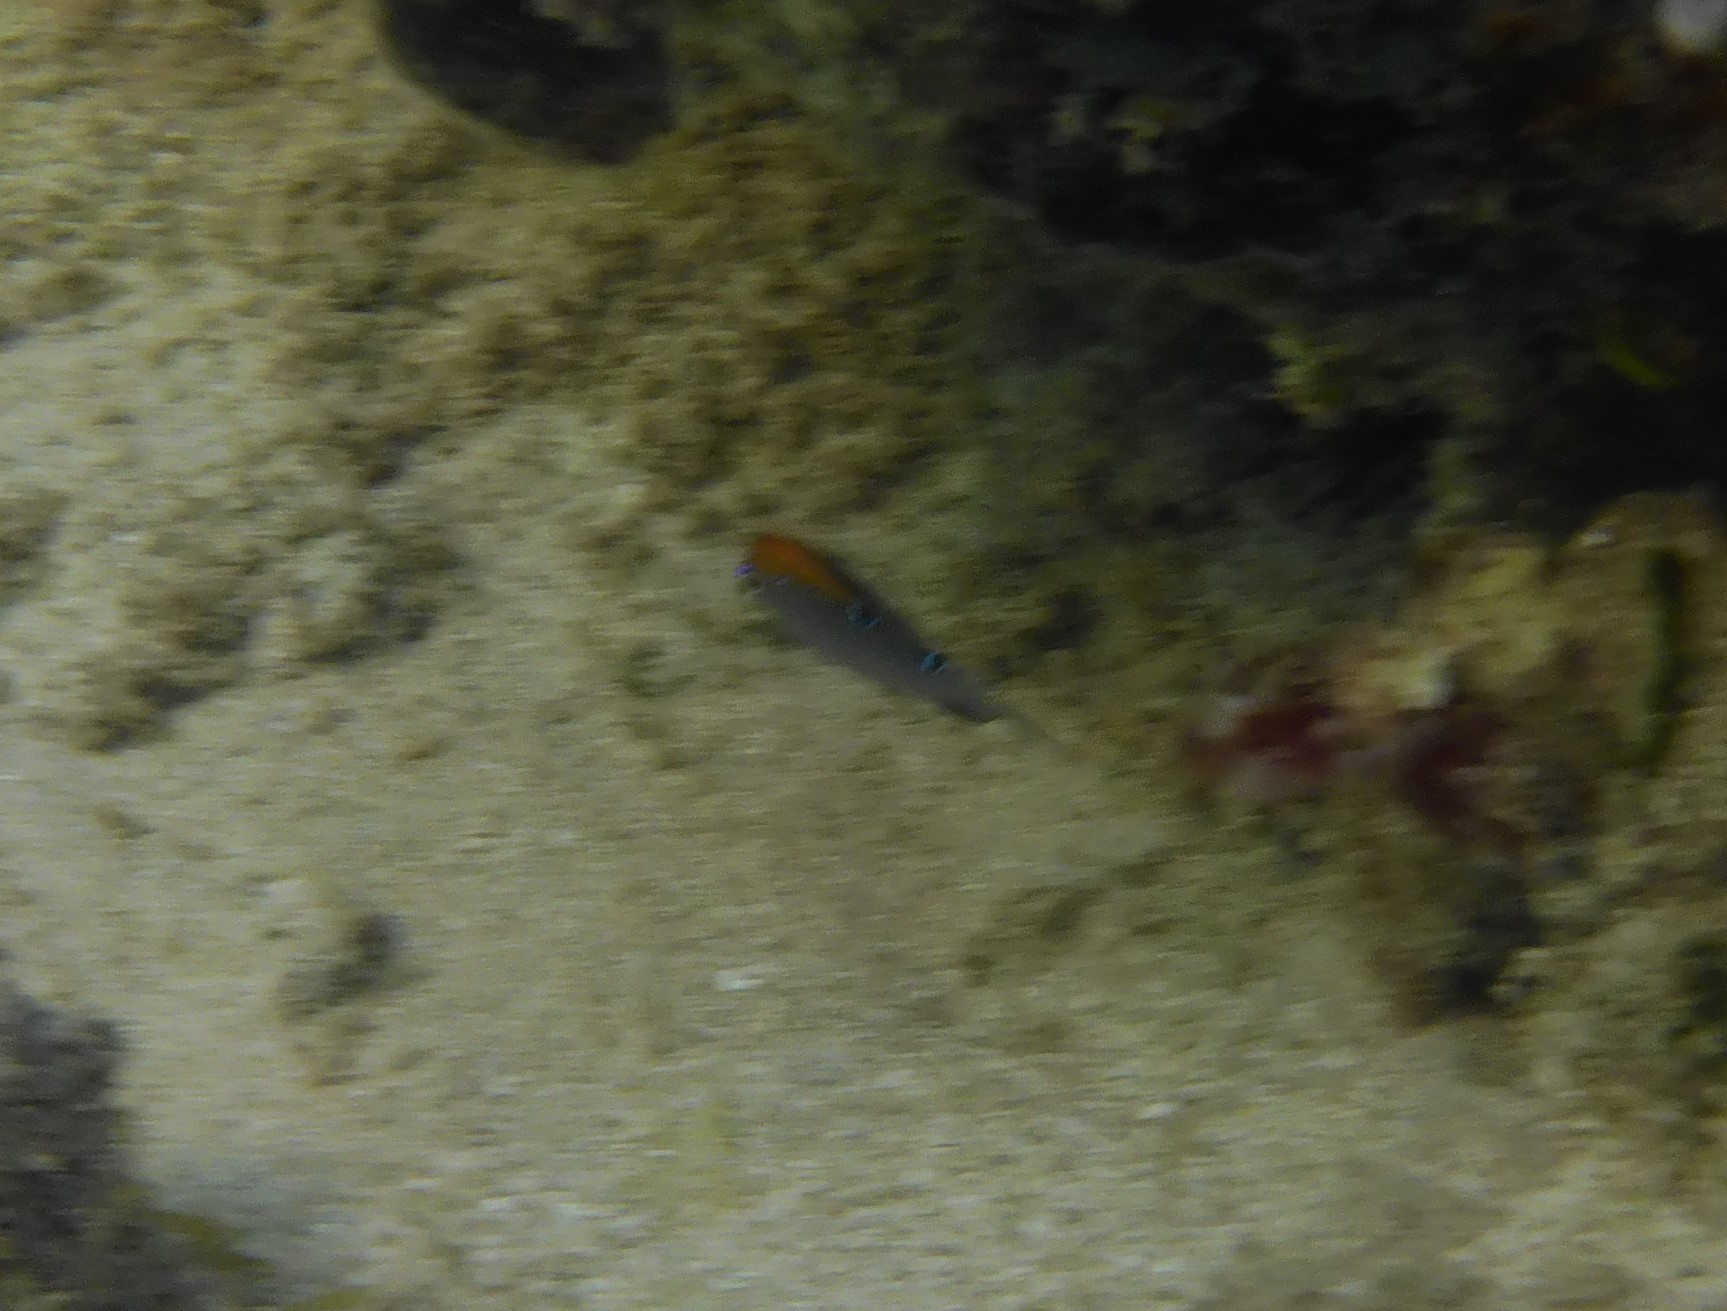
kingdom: Animalia
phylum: Chordata
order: Perciformes
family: Pomacentridae
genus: Stegastes
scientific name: Stegastes adustus
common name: Dusky damselfish
